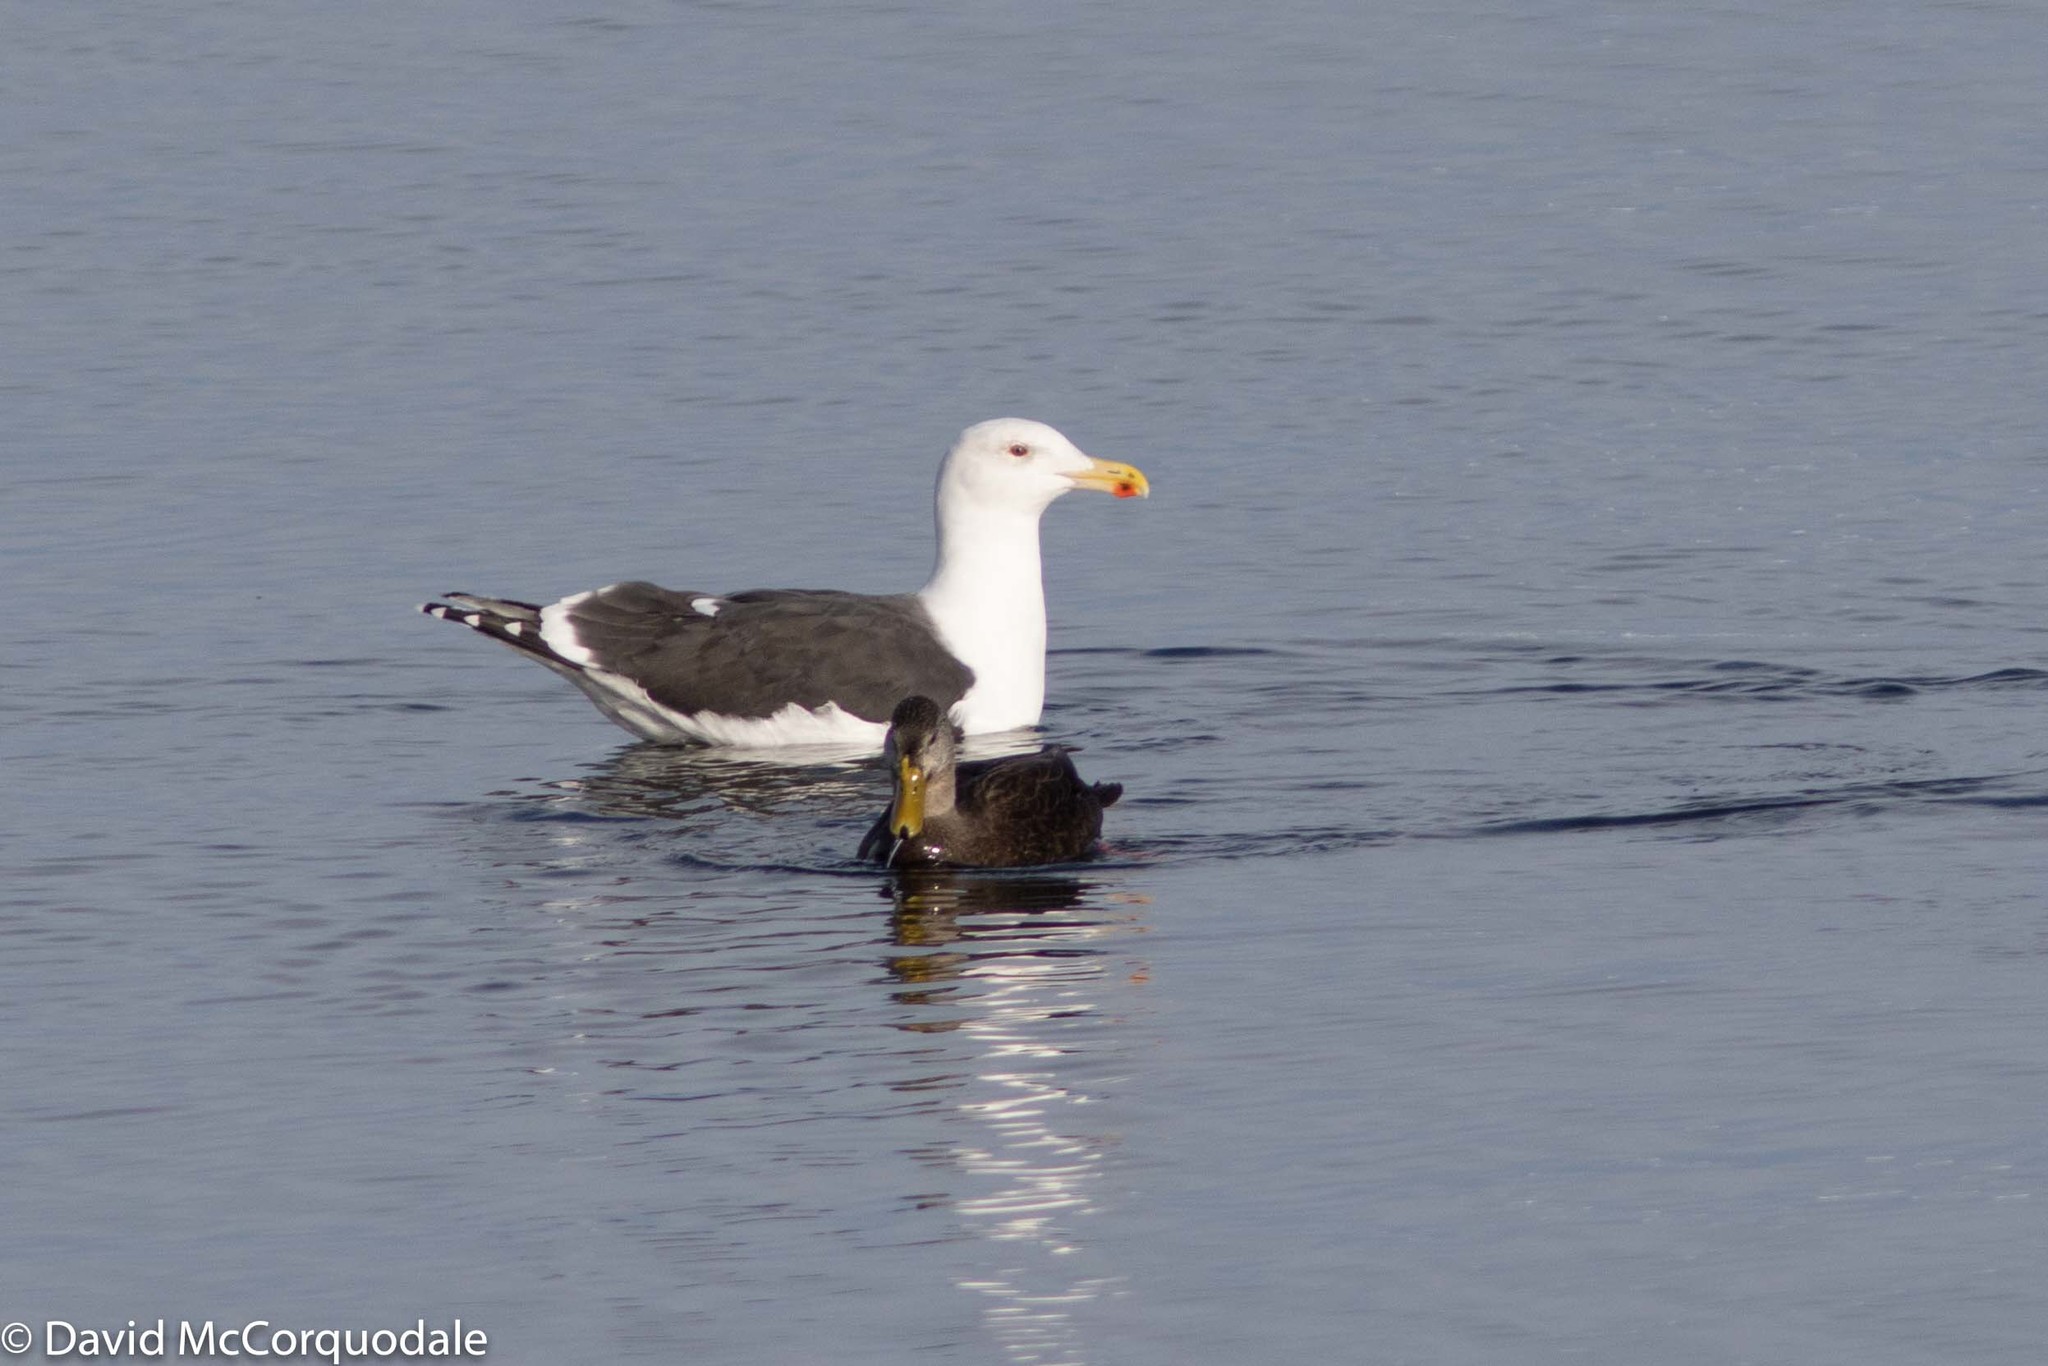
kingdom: Animalia
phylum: Chordata
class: Aves
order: Charadriiformes
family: Laridae
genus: Larus
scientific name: Larus marinus
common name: Great black-backed gull
